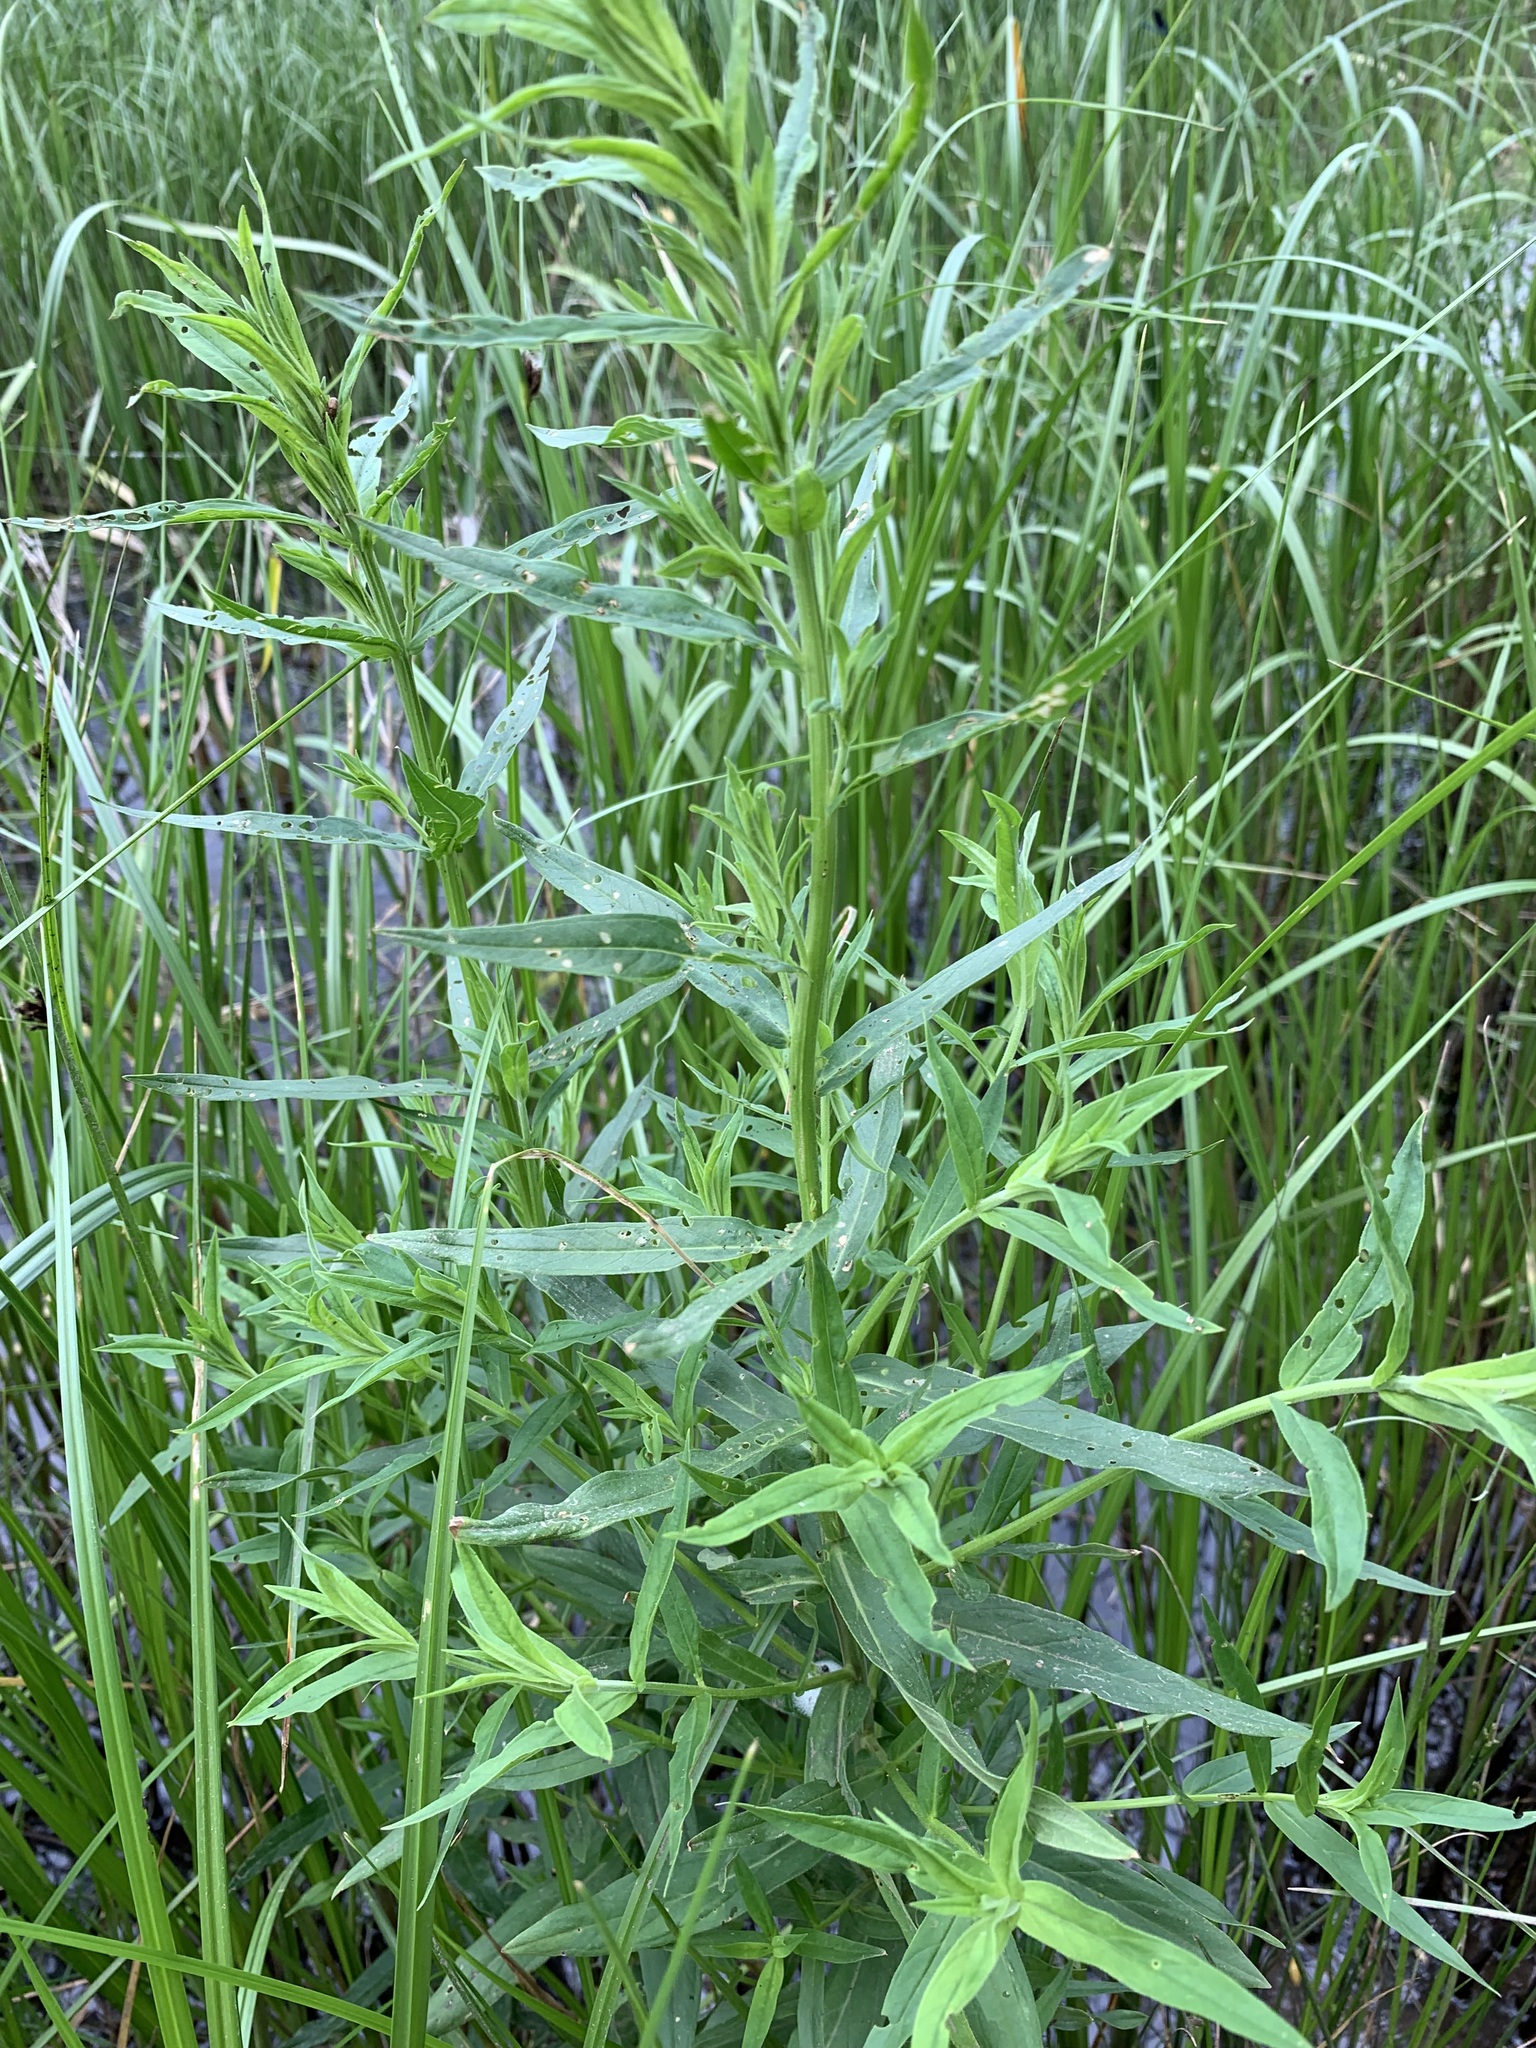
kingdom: Plantae
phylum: Tracheophyta
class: Magnoliopsida
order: Myrtales
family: Lythraceae
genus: Lythrum
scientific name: Lythrum salicaria
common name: Purple loosestrife
